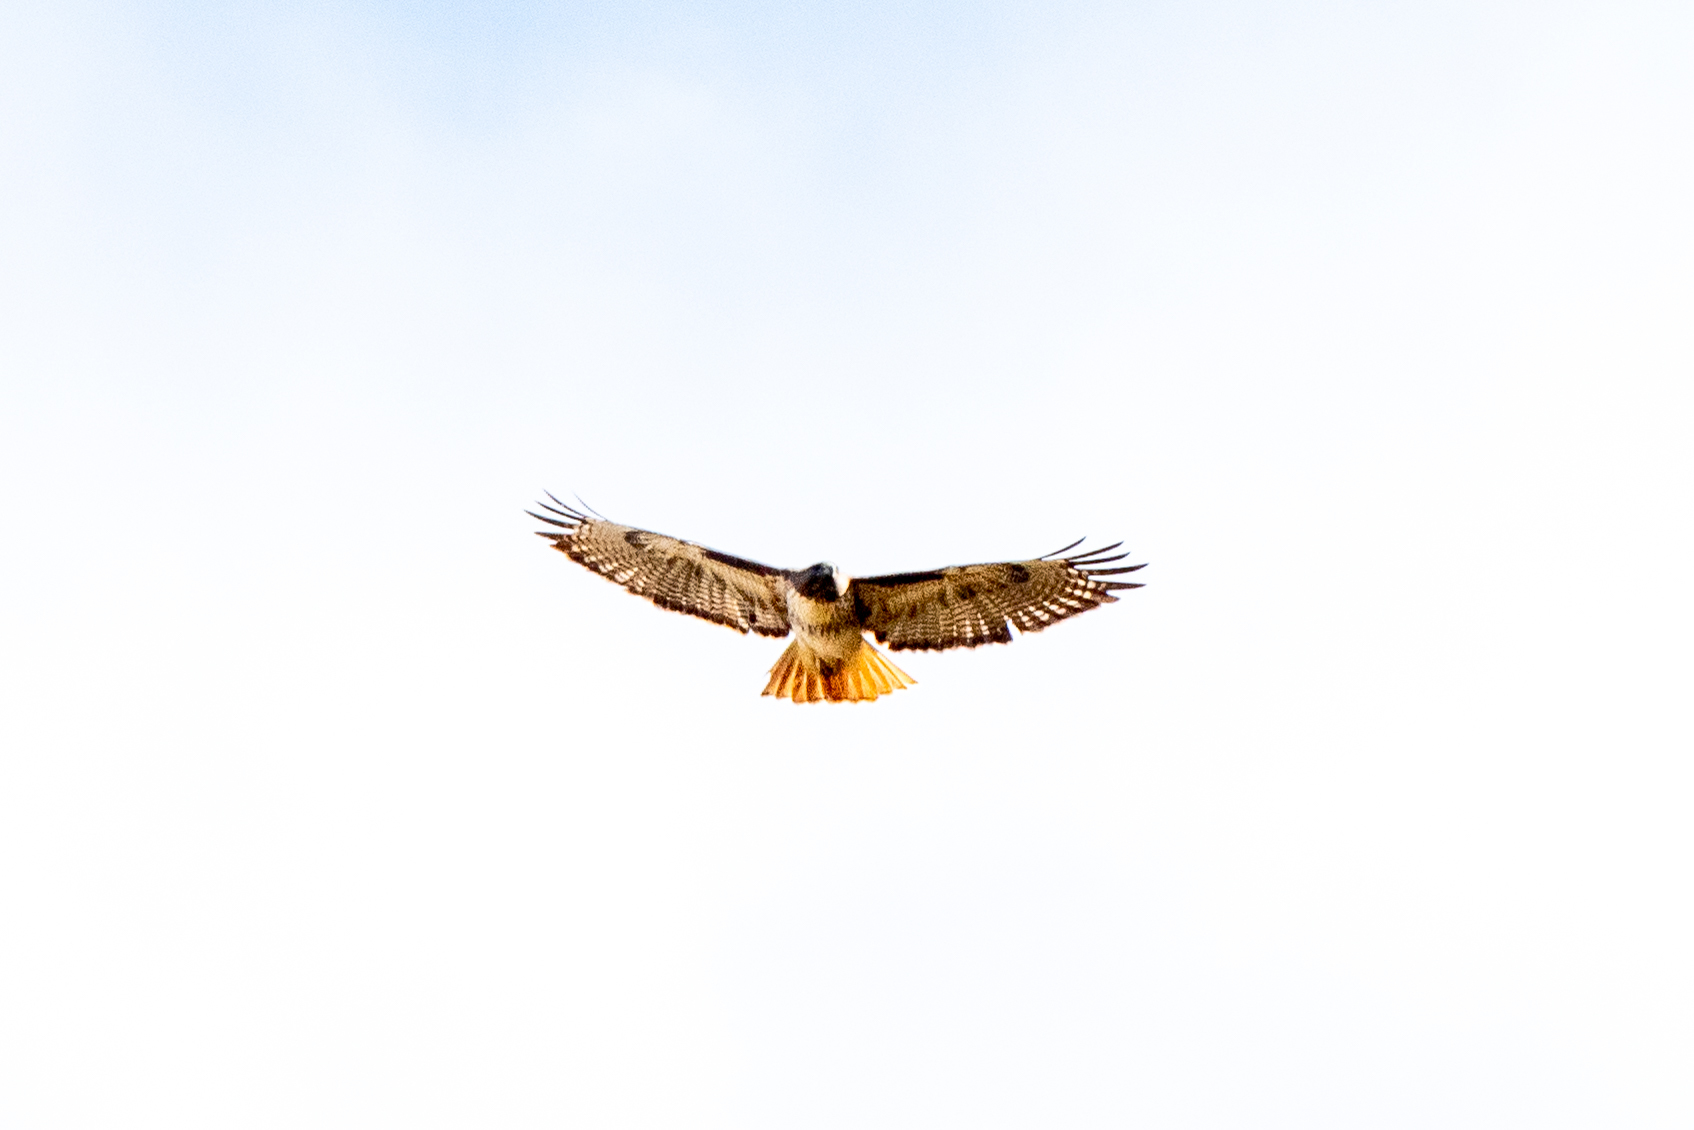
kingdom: Animalia
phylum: Chordata
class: Aves
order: Accipitriformes
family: Accipitridae
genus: Buteo
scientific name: Buteo jamaicensis
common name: Red-tailed hawk
